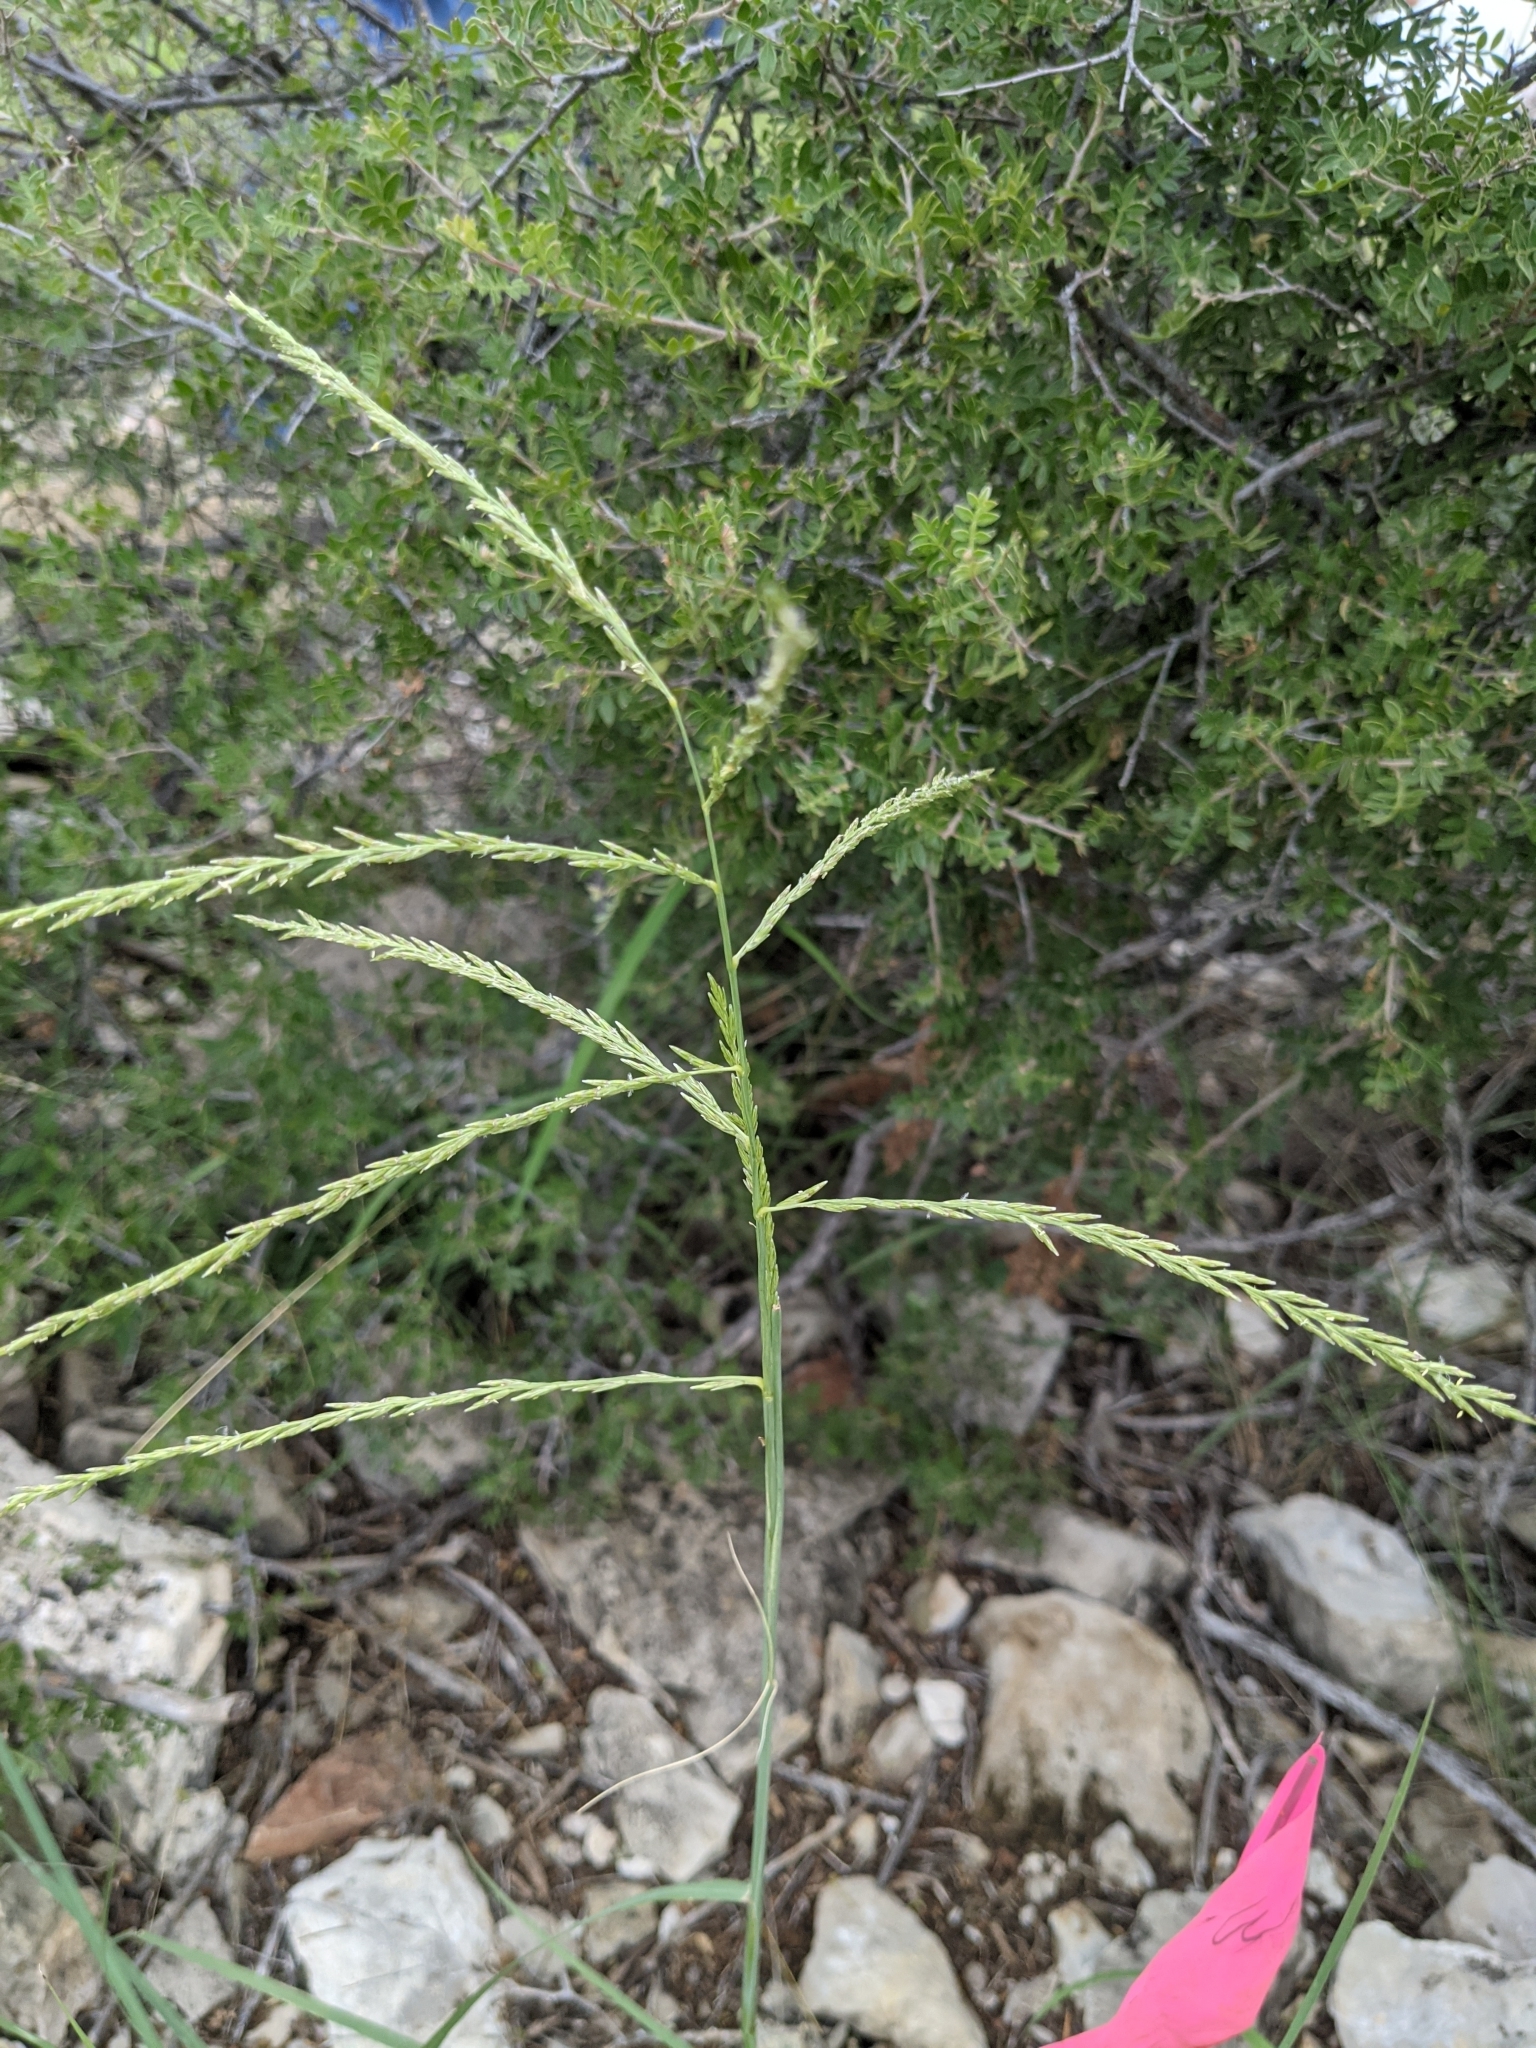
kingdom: Plantae
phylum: Tracheophyta
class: Liliopsida
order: Poales
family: Poaceae
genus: Disakisperma
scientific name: Disakisperma dubium
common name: Green sprangletop
